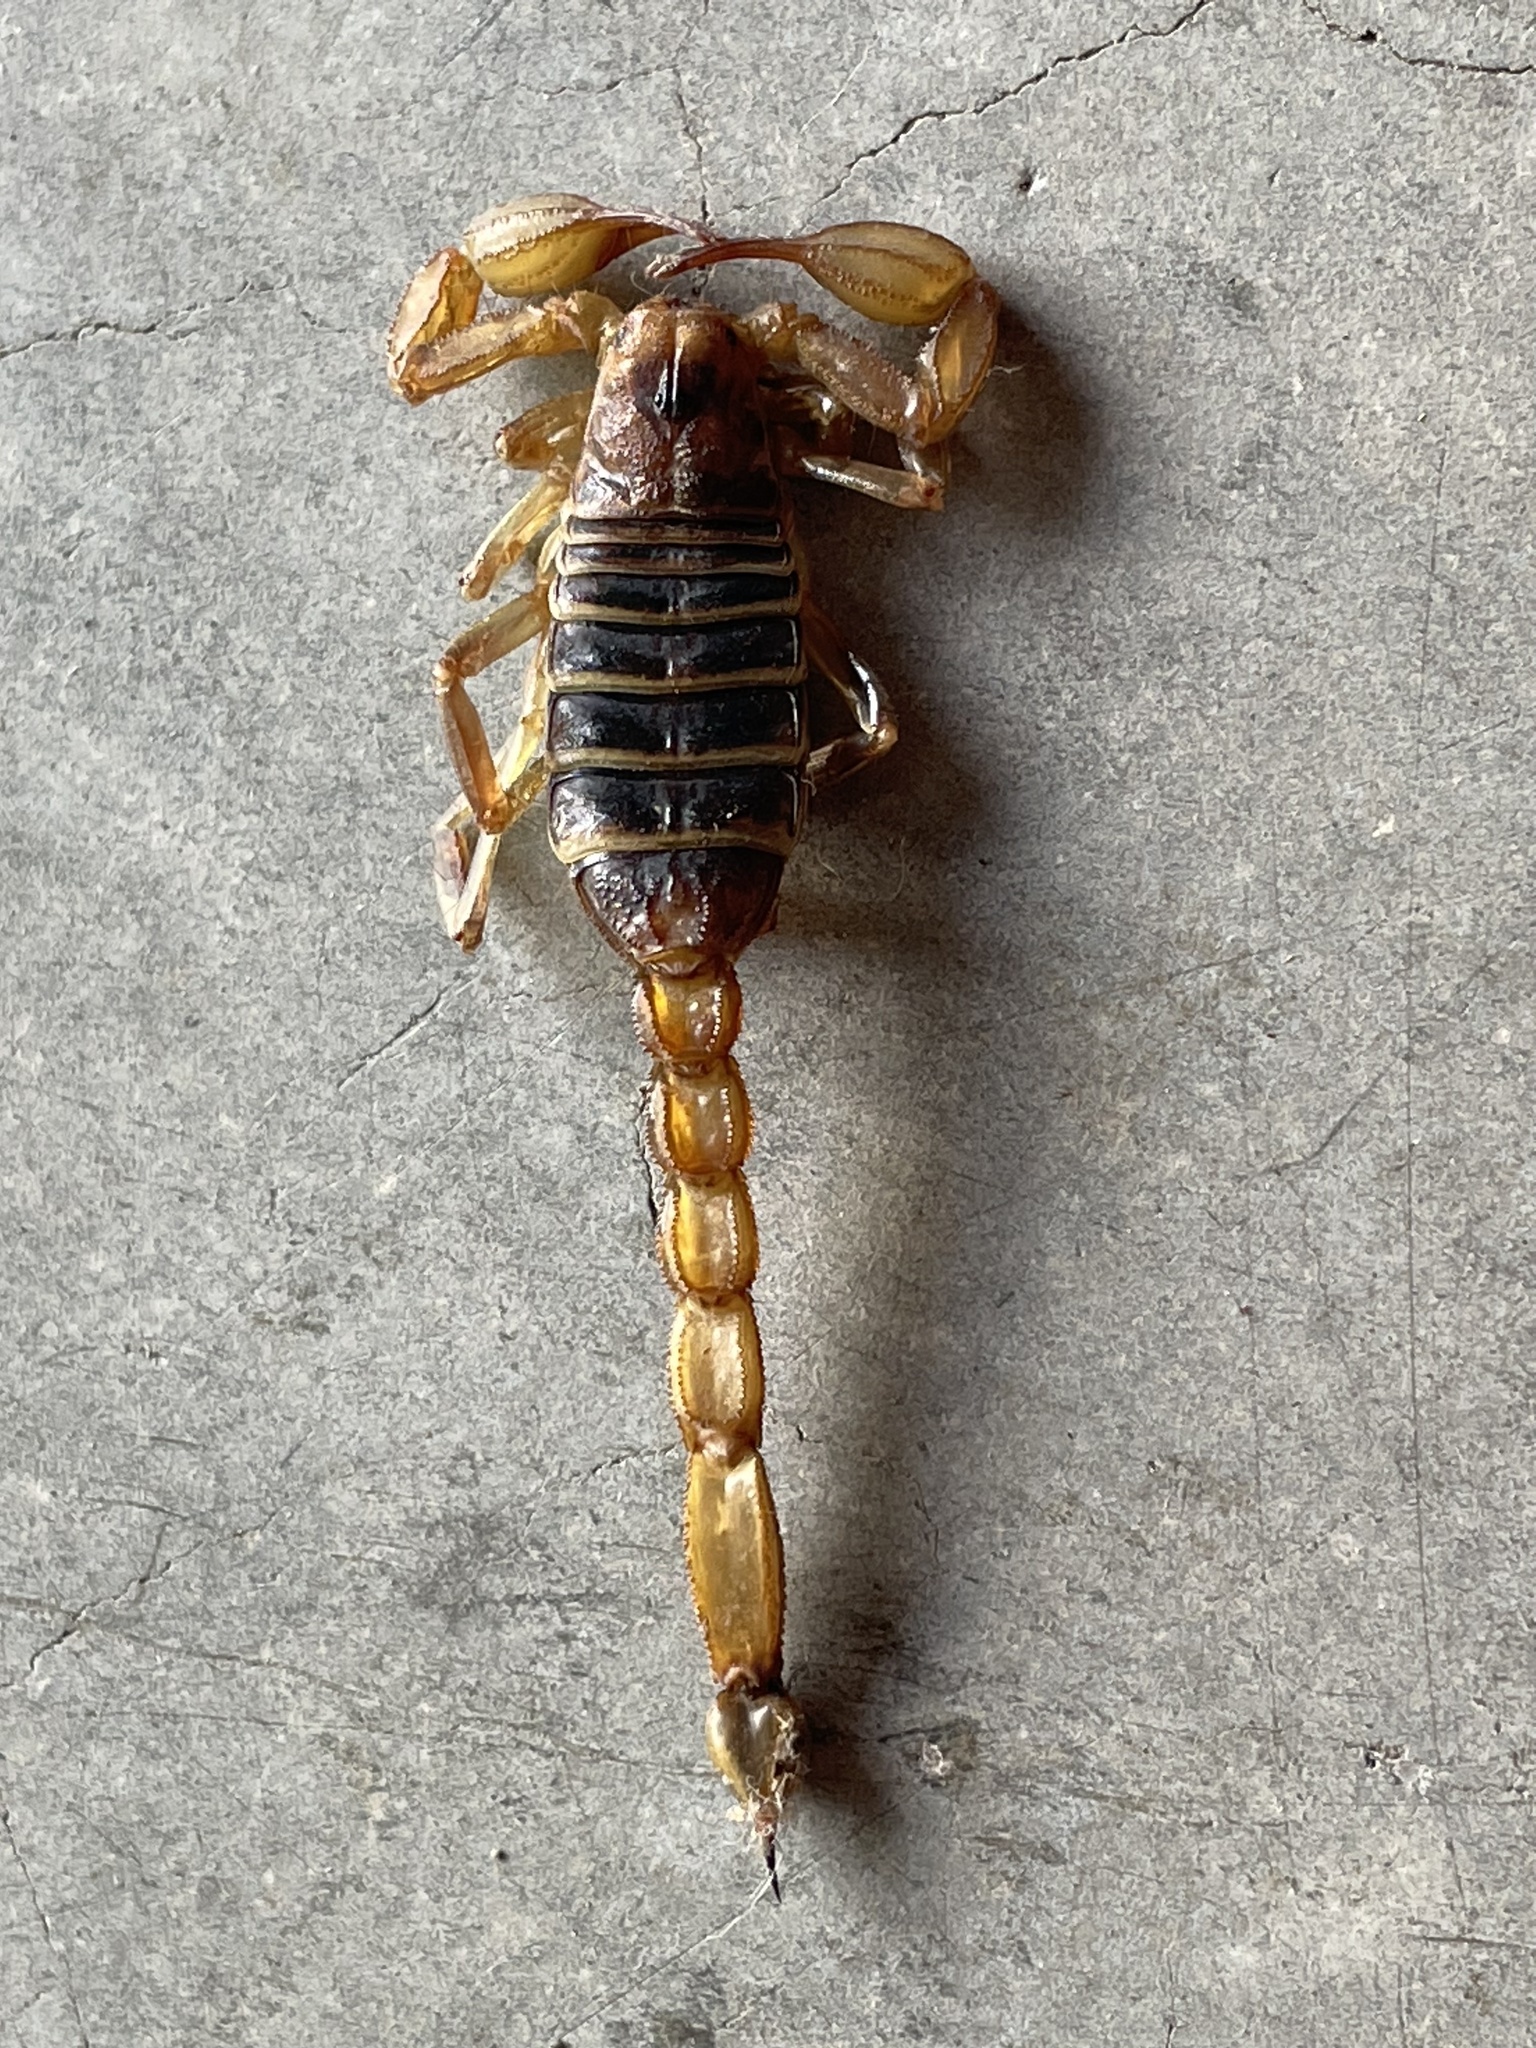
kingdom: Animalia
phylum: Arthropoda
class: Arachnida
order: Scorpiones
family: Vaejovidae
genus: Paruroctonus
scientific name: Paruroctonus boreus
